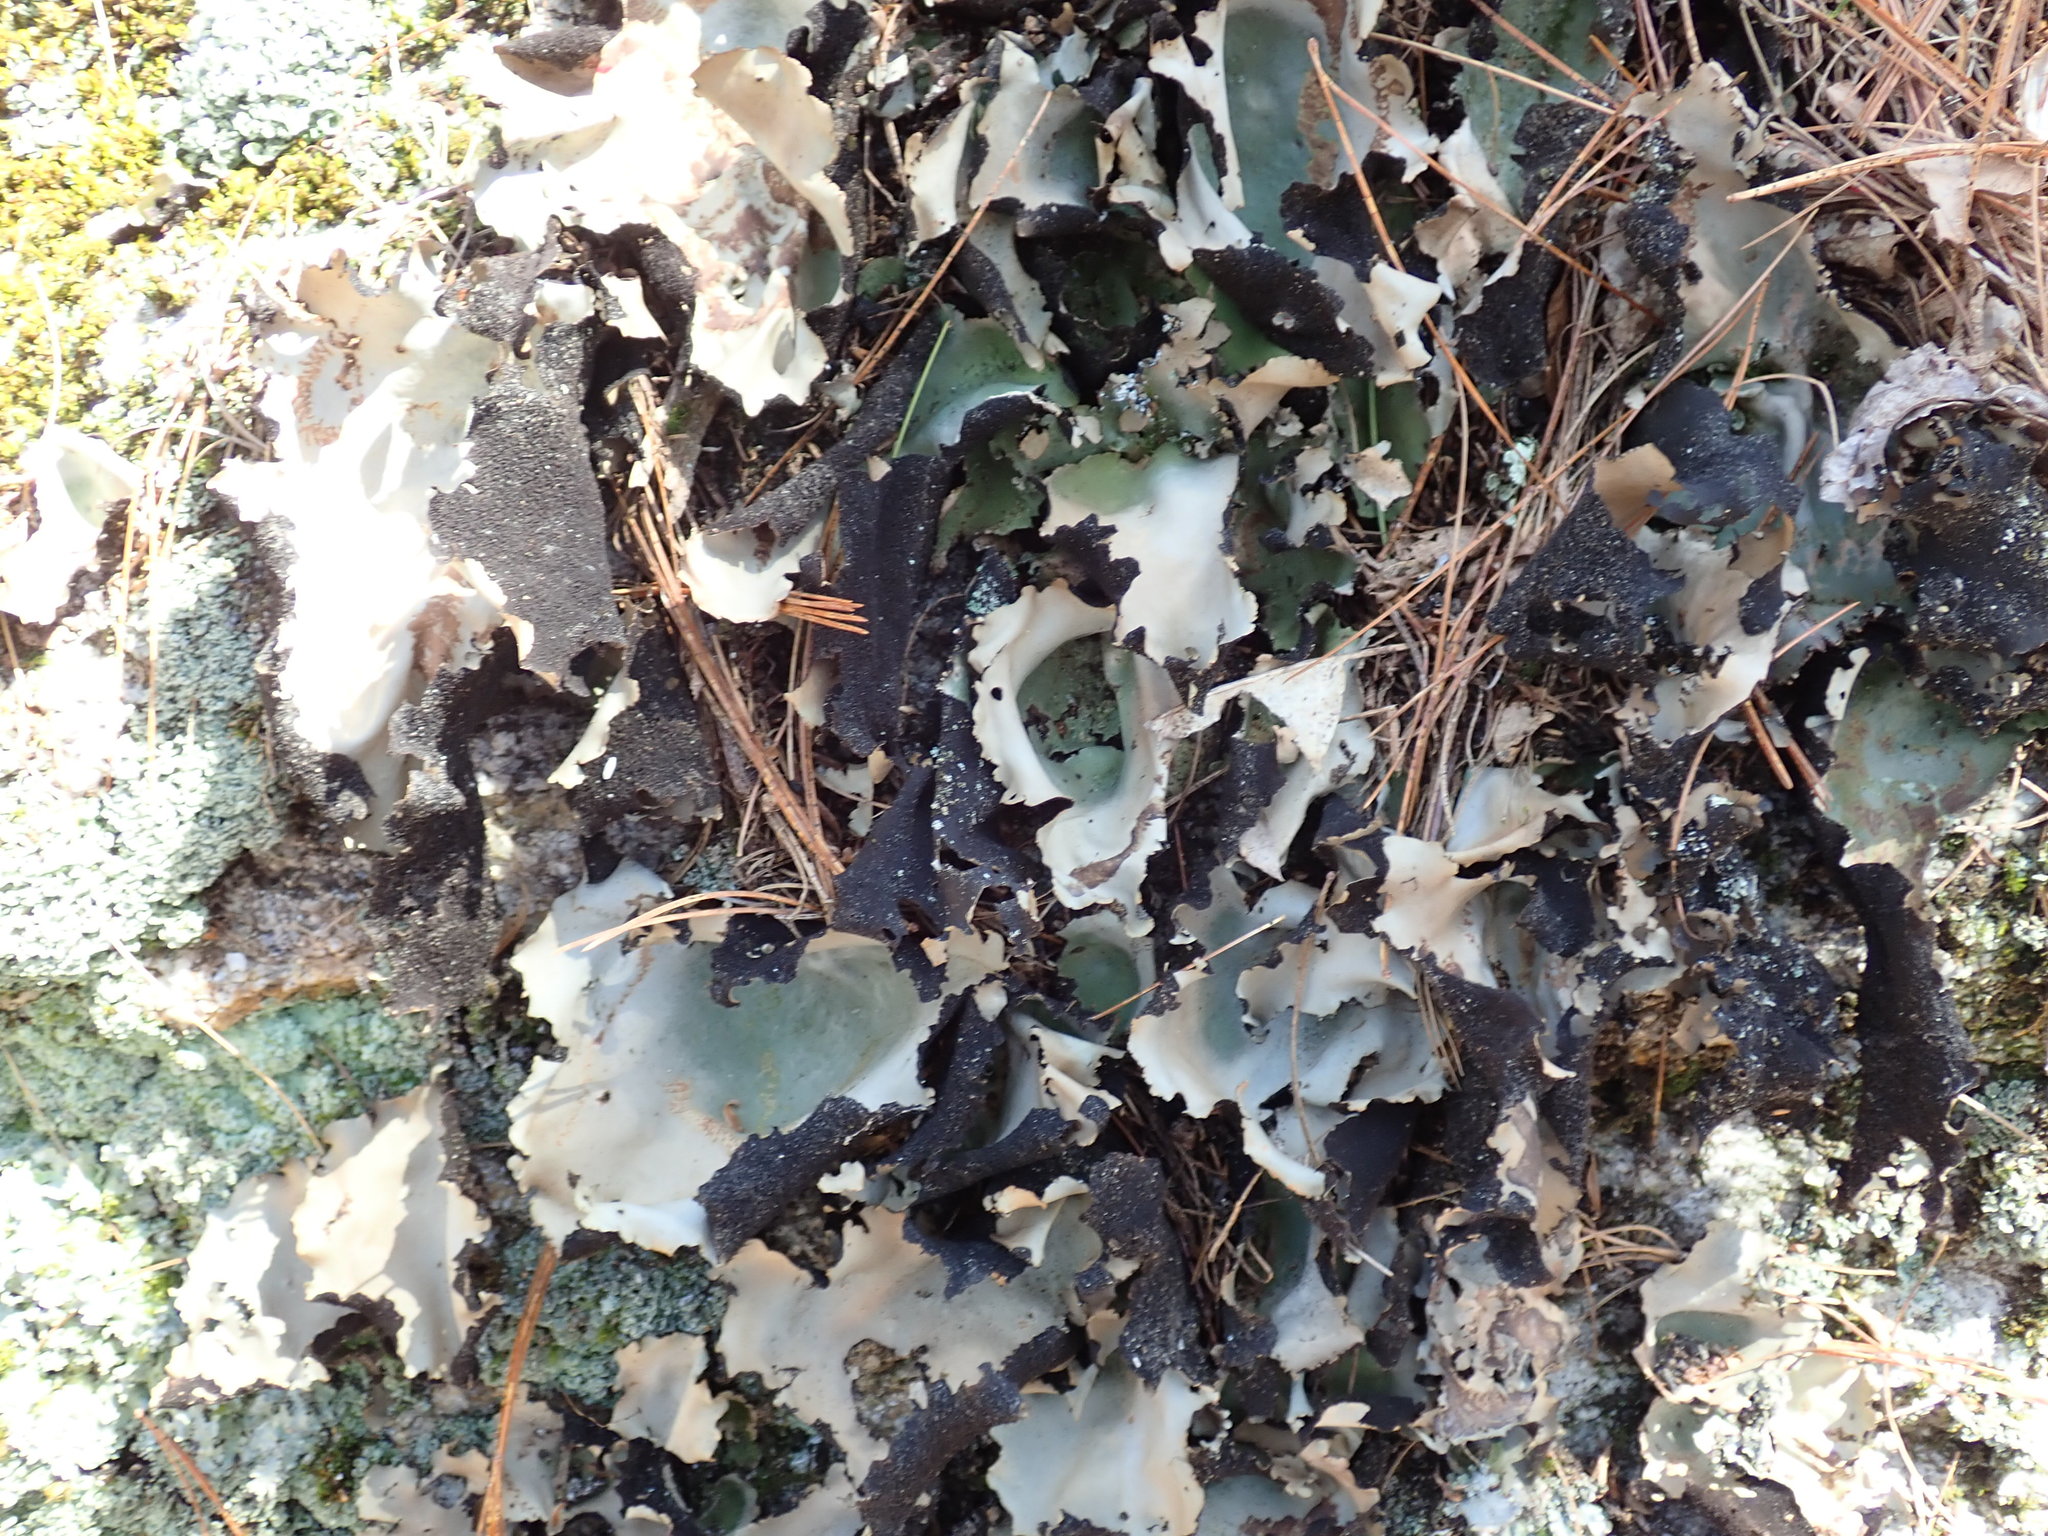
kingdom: Fungi
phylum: Ascomycota
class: Lecanoromycetes
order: Umbilicariales
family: Umbilicariaceae
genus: Umbilicaria
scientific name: Umbilicaria mammulata
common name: Smooth rock tripe
